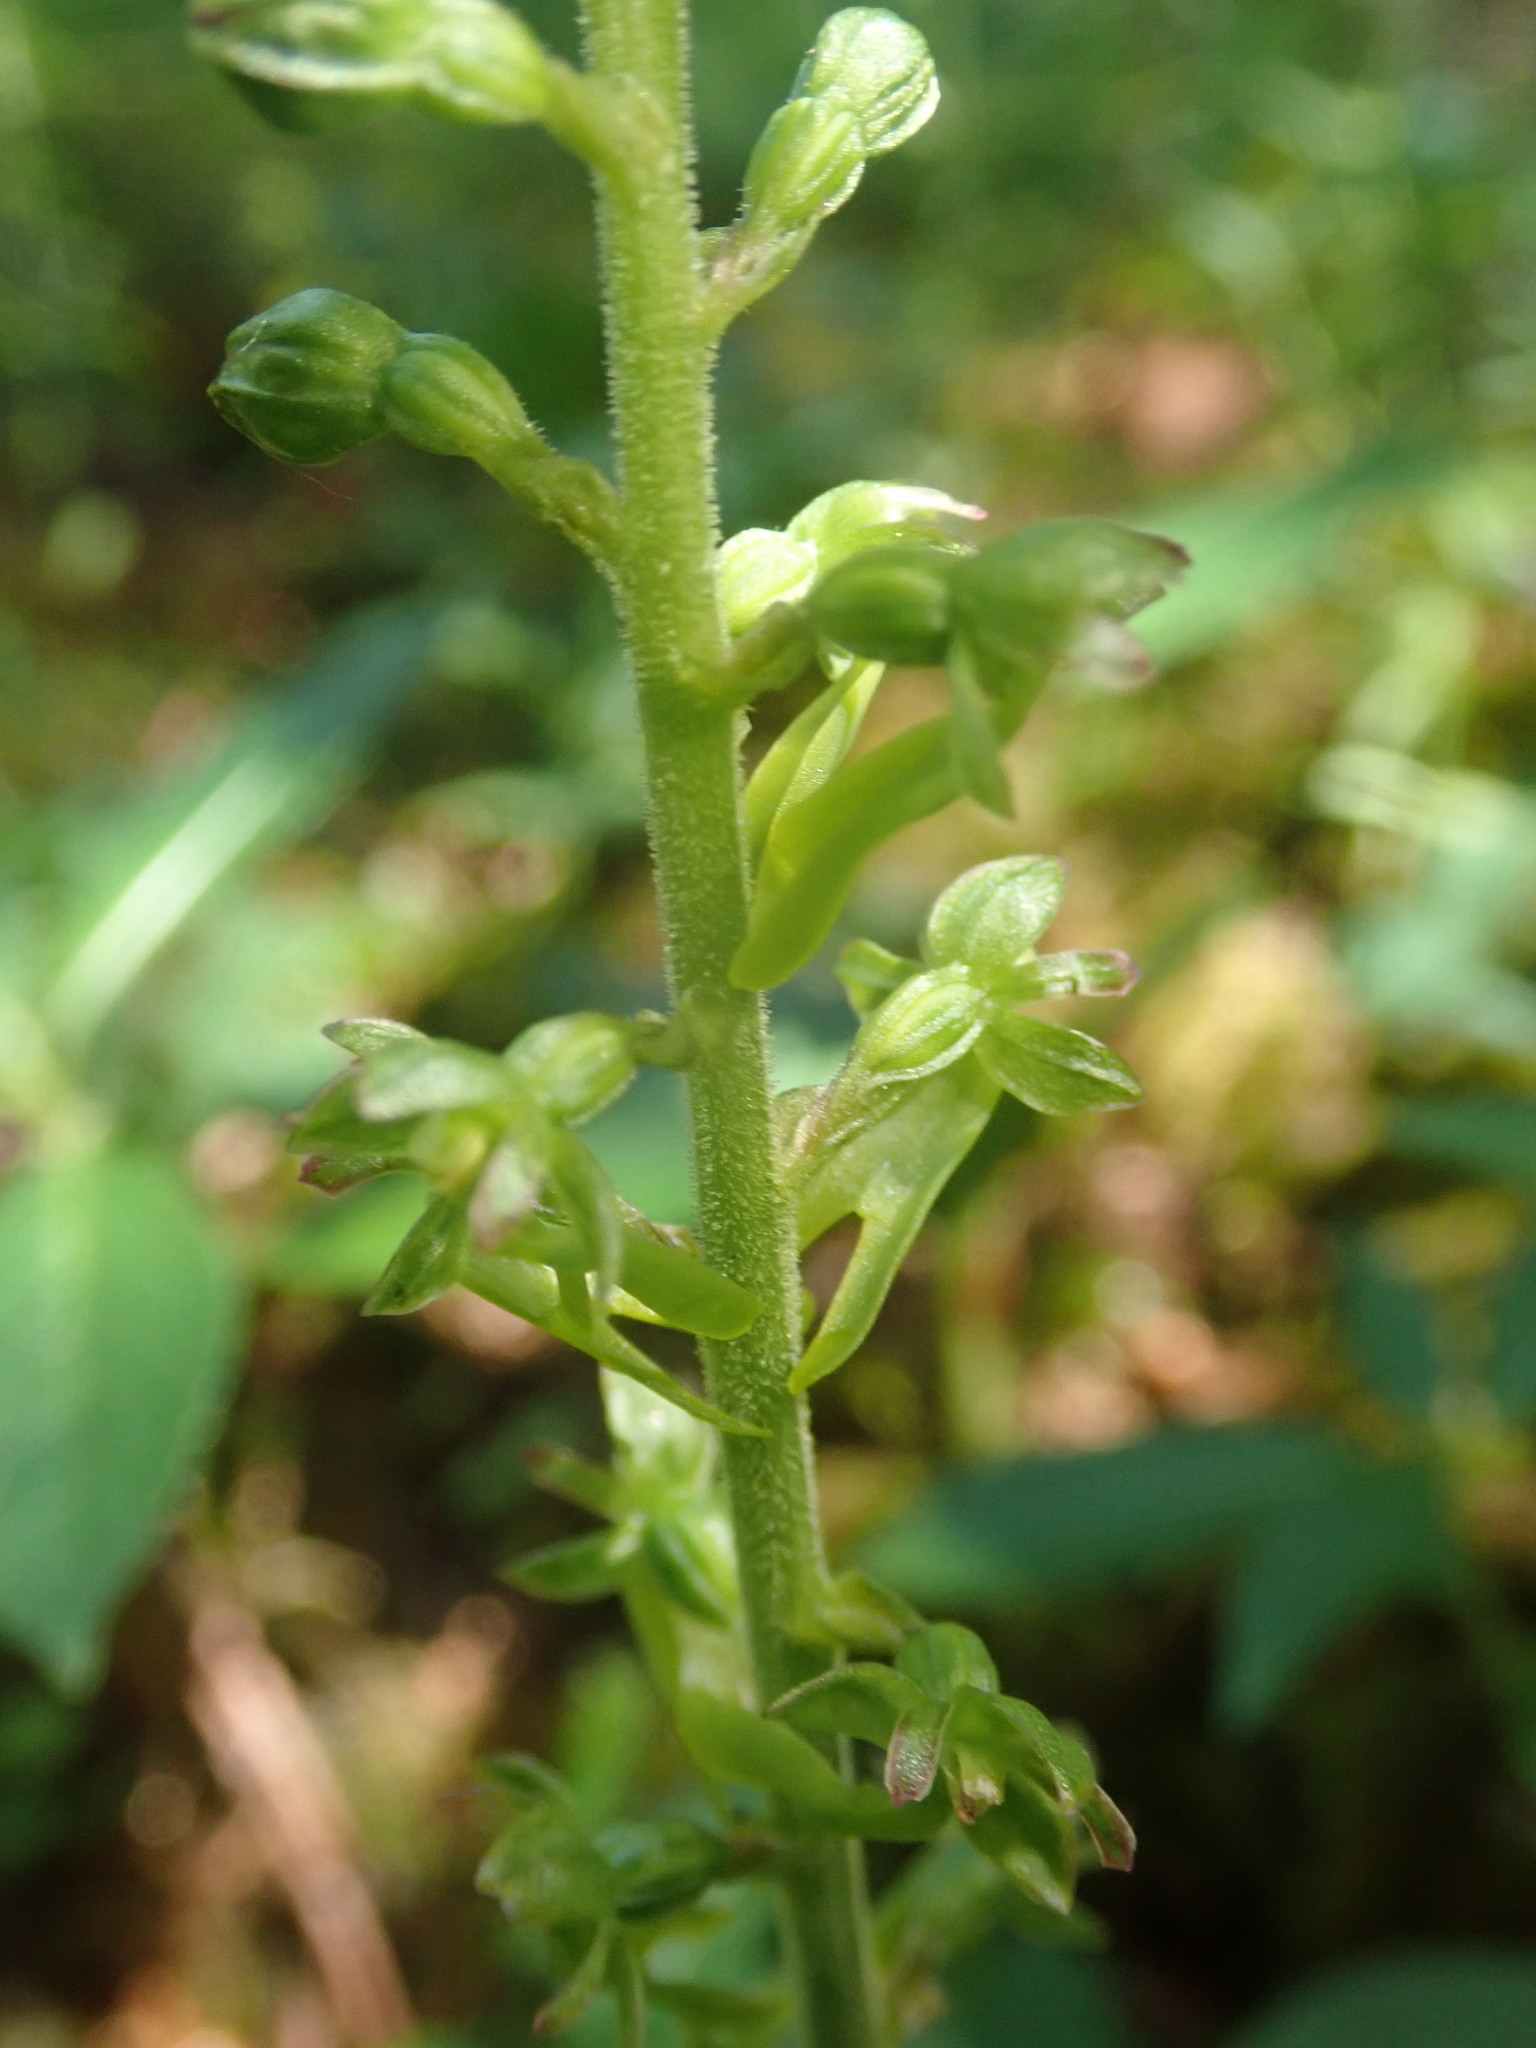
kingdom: Plantae
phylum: Tracheophyta
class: Liliopsida
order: Asparagales
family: Orchidaceae
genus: Neottia
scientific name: Neottia ovata
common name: Common twayblade
